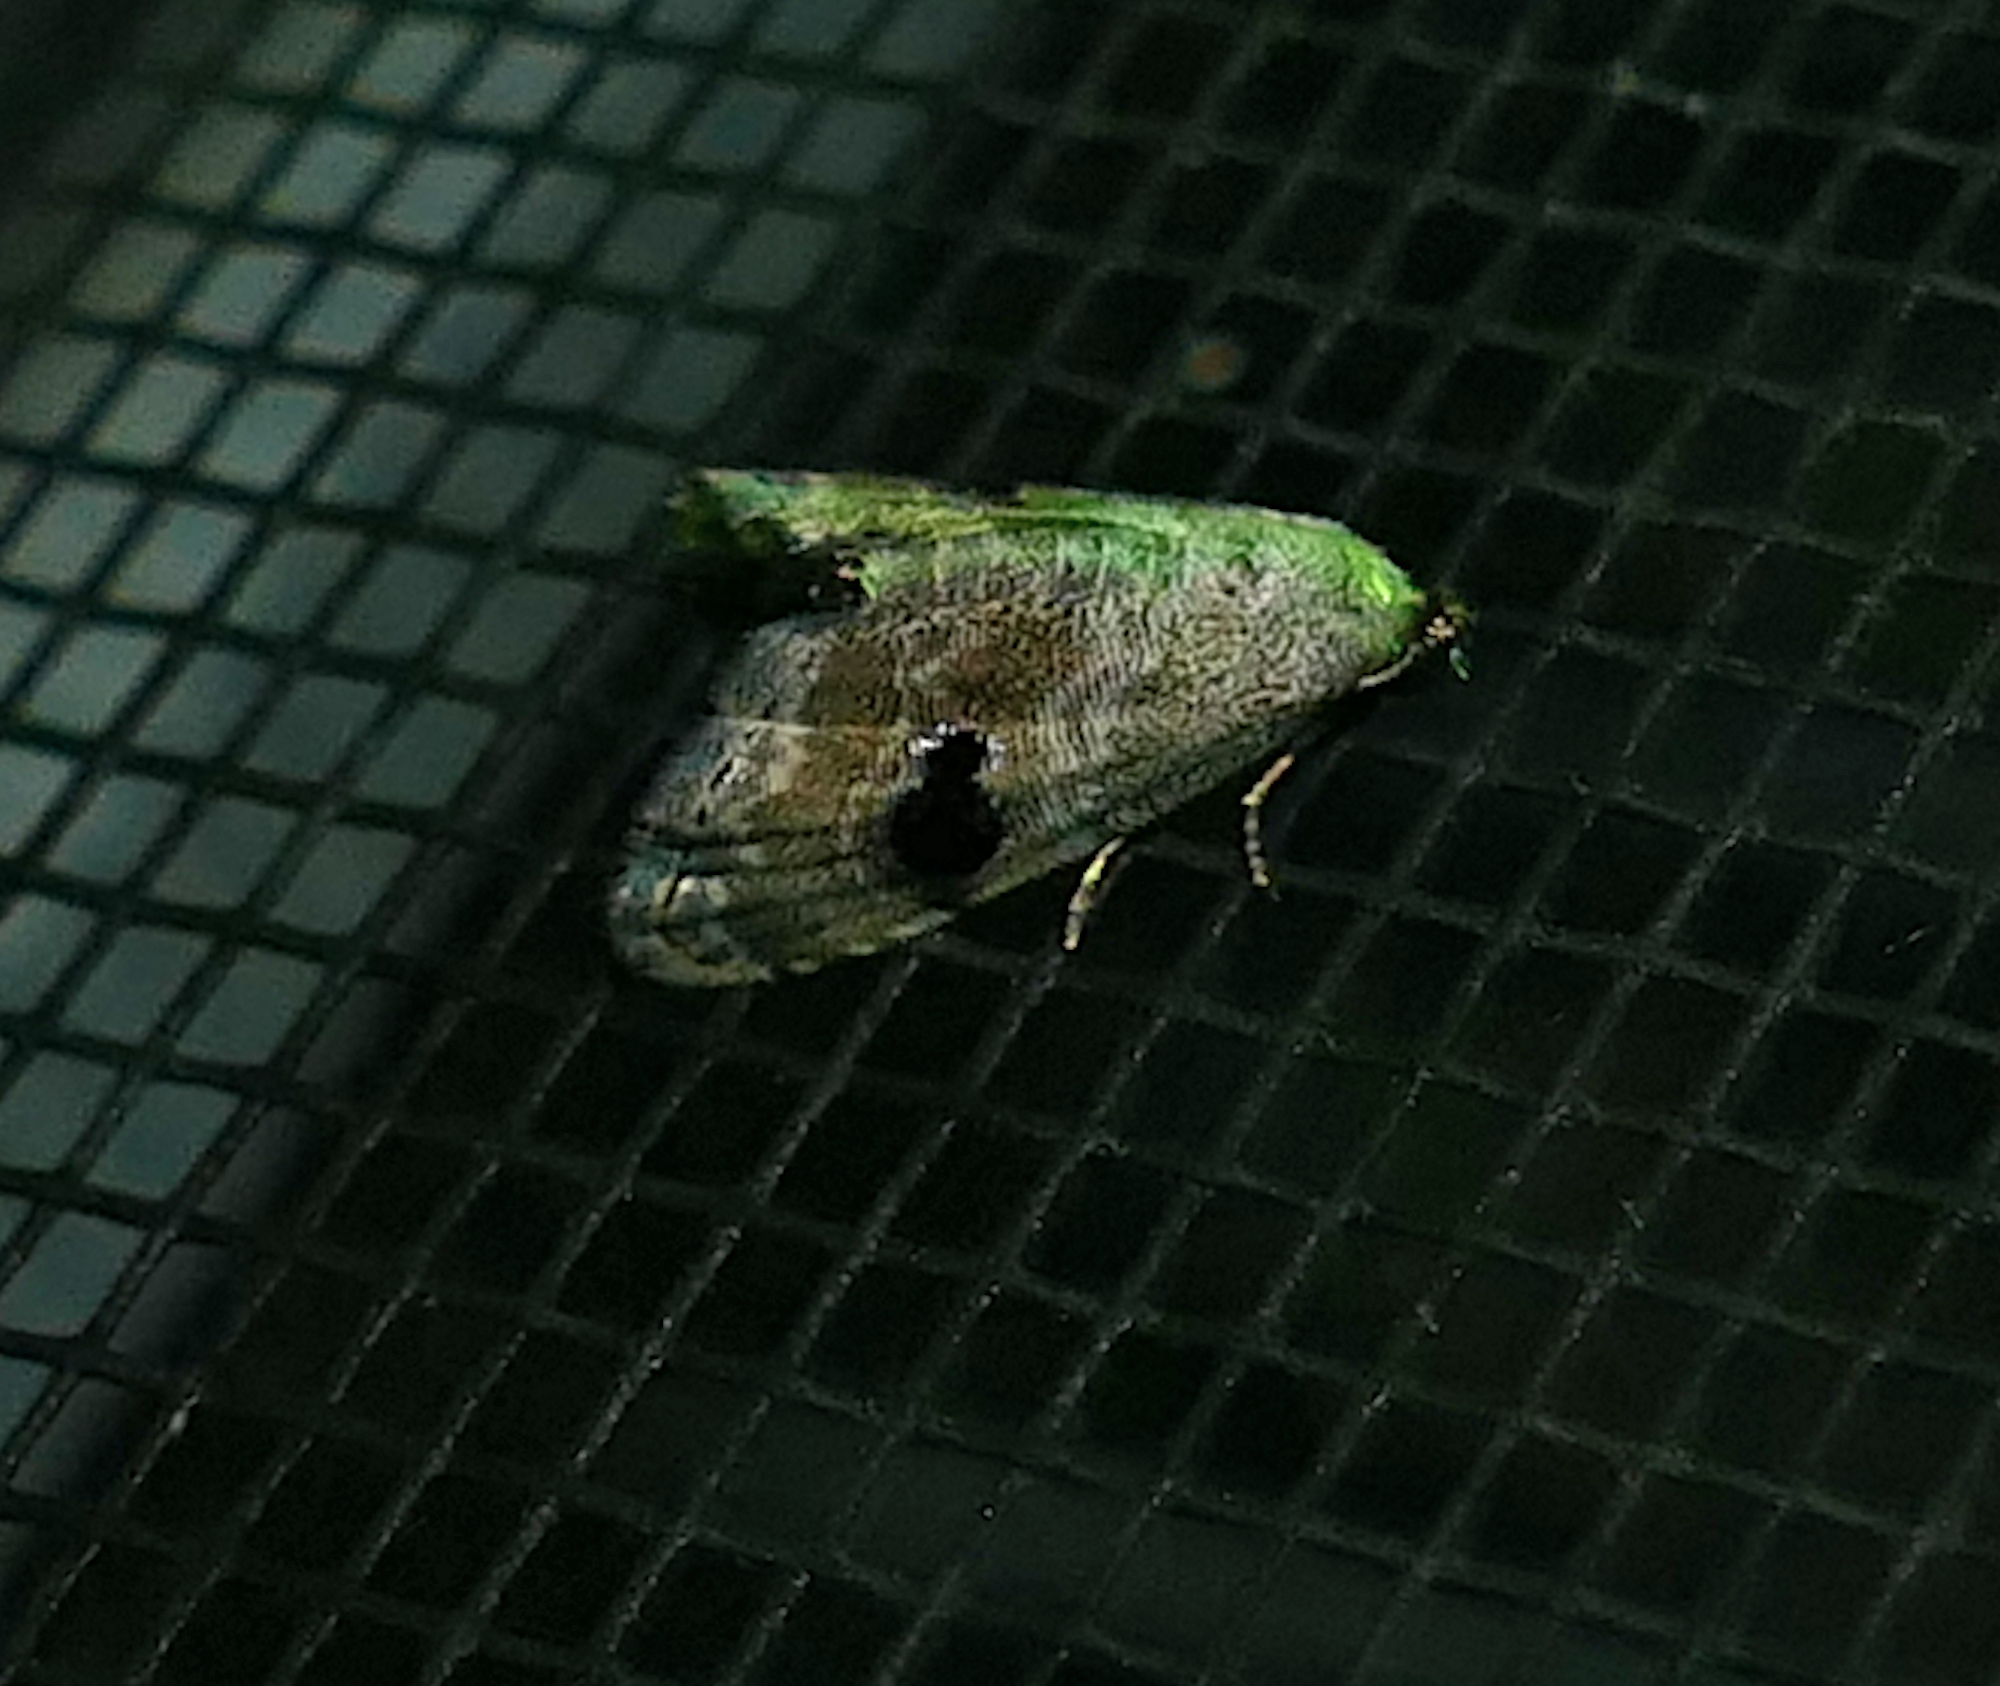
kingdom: Animalia
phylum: Arthropoda
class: Insecta
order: Lepidoptera
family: Noctuidae
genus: Abablemma
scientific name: Abablemma duomaculata
